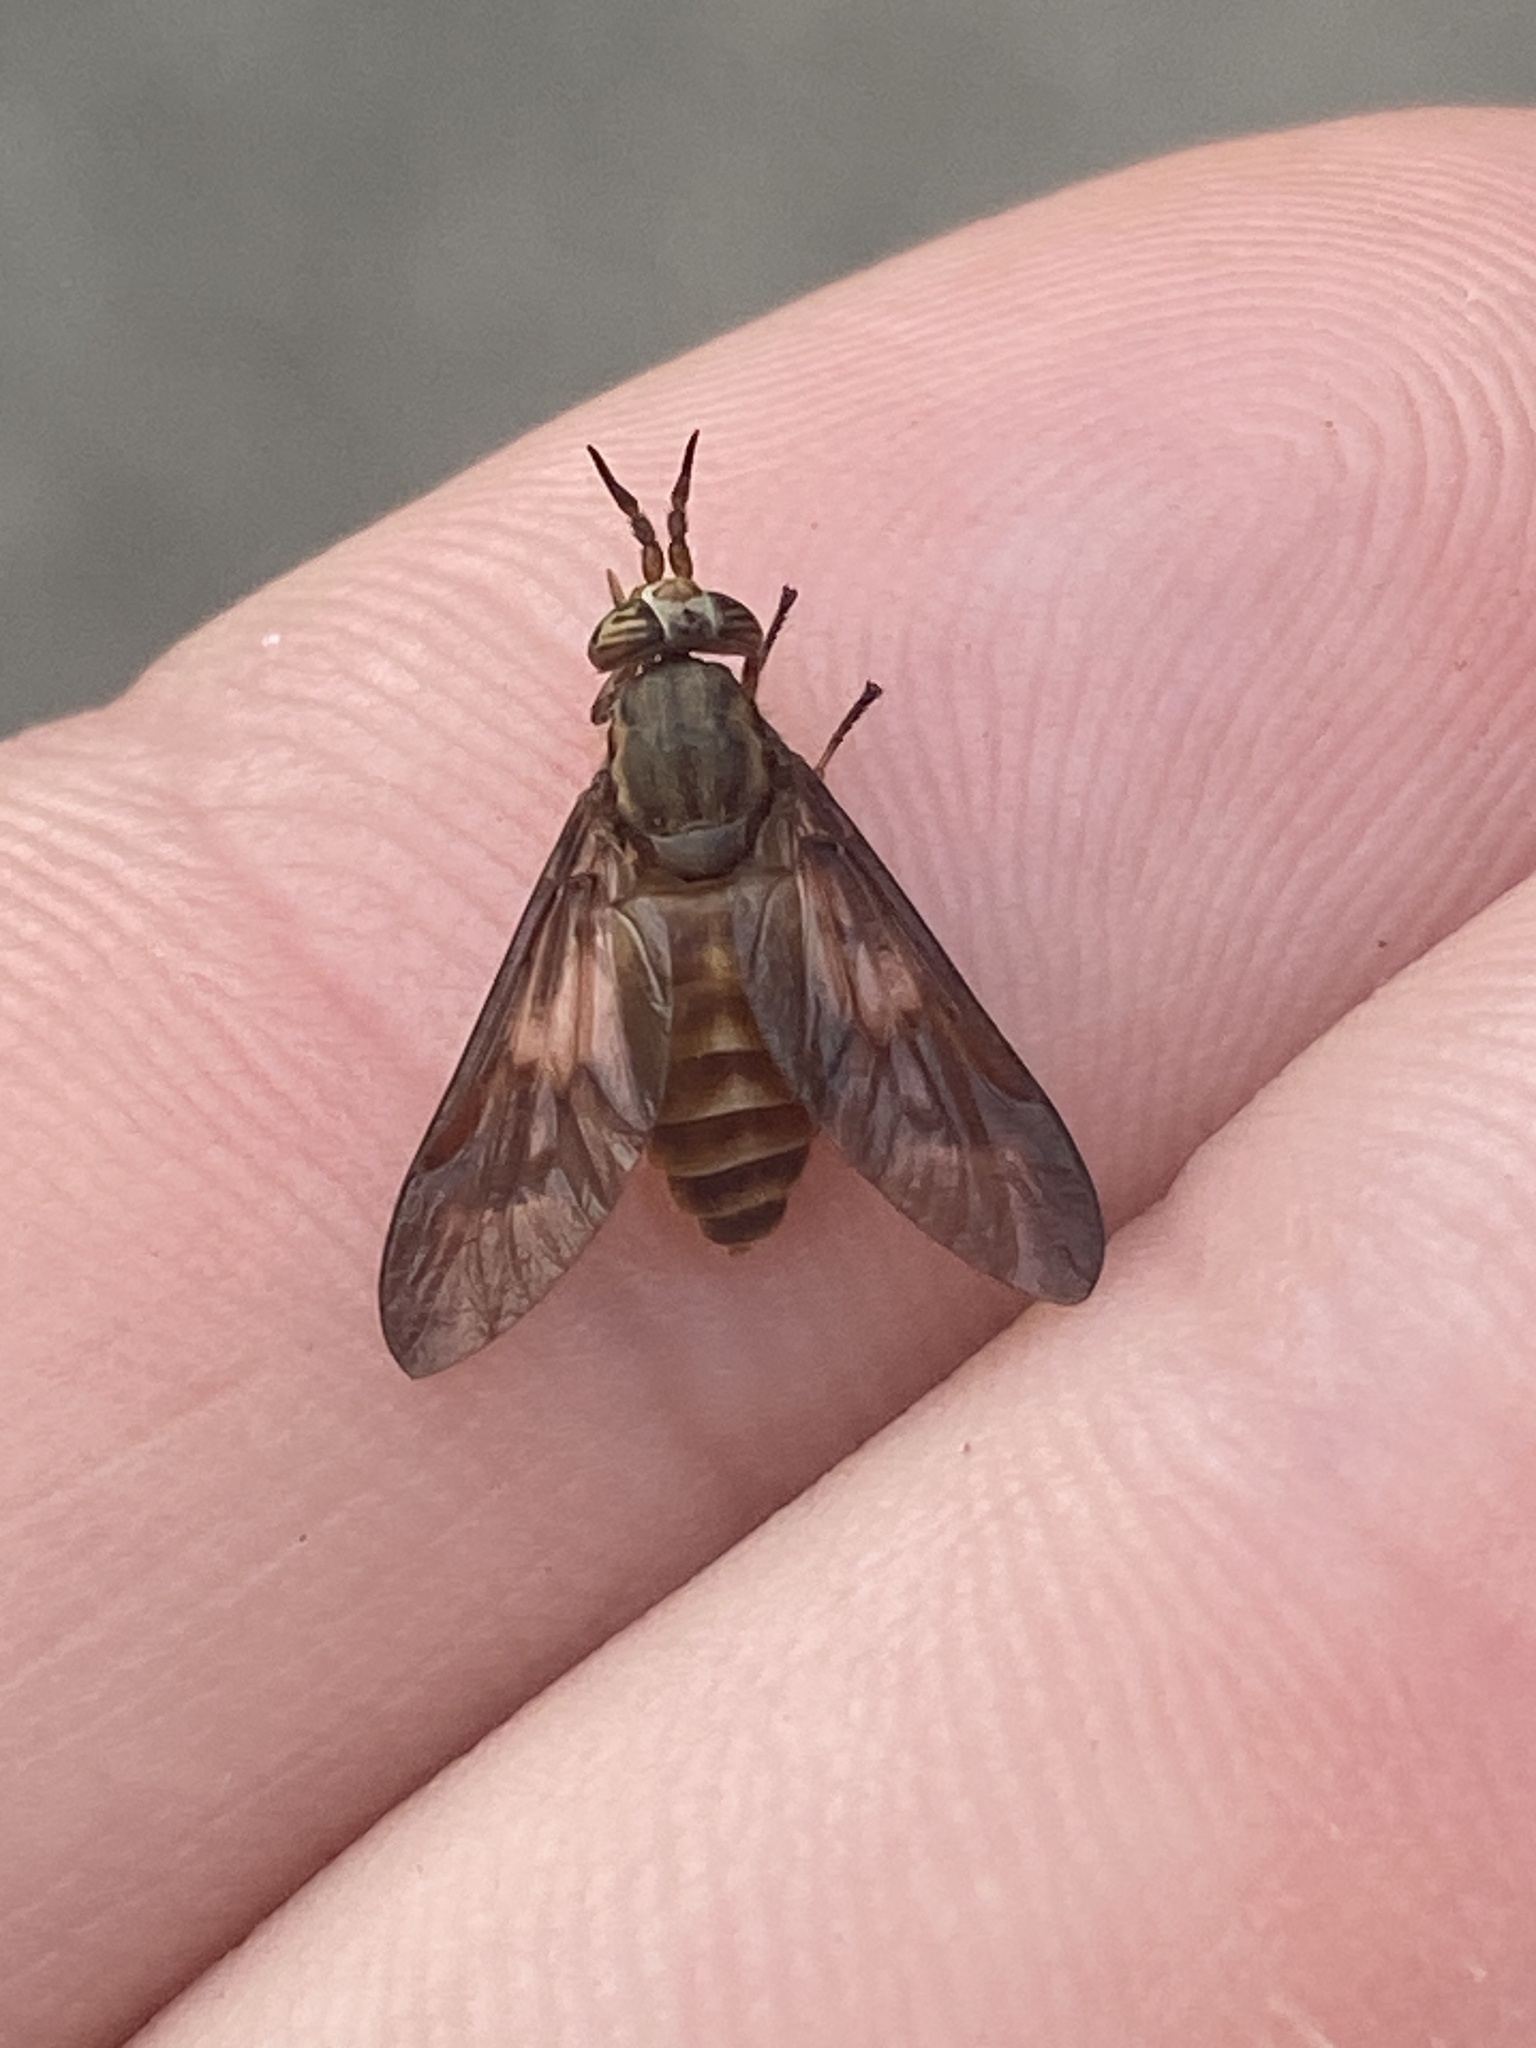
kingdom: Animalia
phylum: Arthropoda
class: Insecta
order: Diptera
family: Tabanidae
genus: Chrysops
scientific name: Chrysops brunneus
